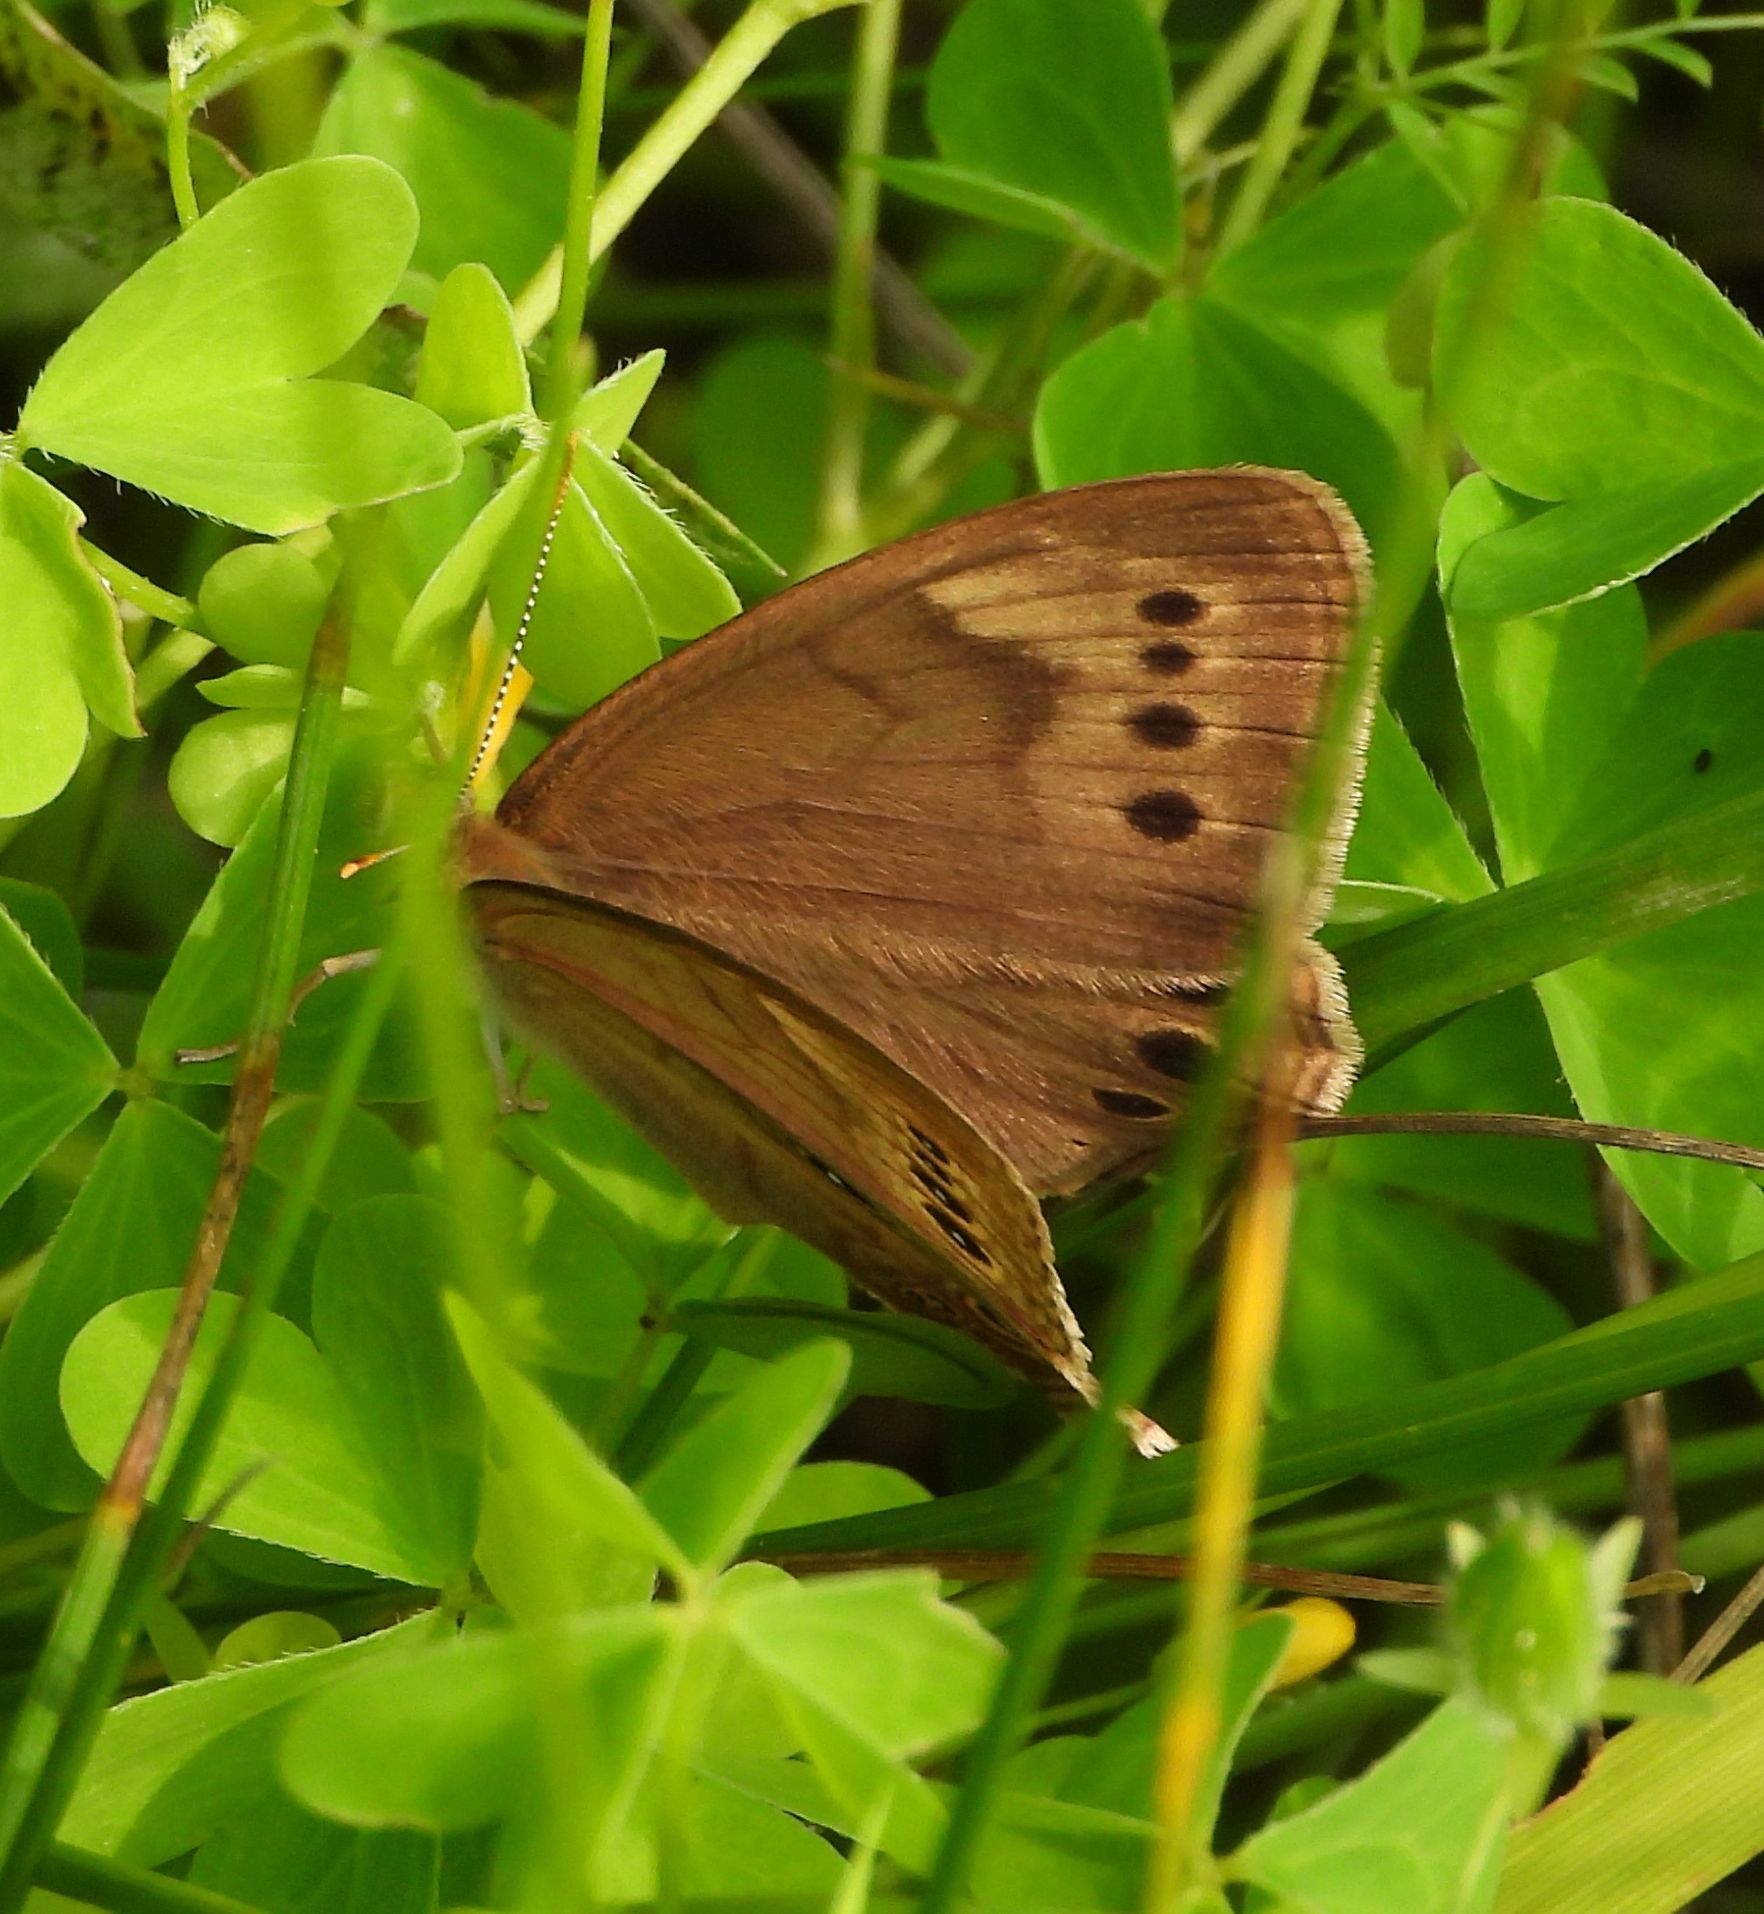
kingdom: Animalia
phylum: Arthropoda
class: Insecta
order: Lepidoptera
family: Nymphalidae
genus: Lethe
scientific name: Lethe eurydice
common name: Eyed brown
